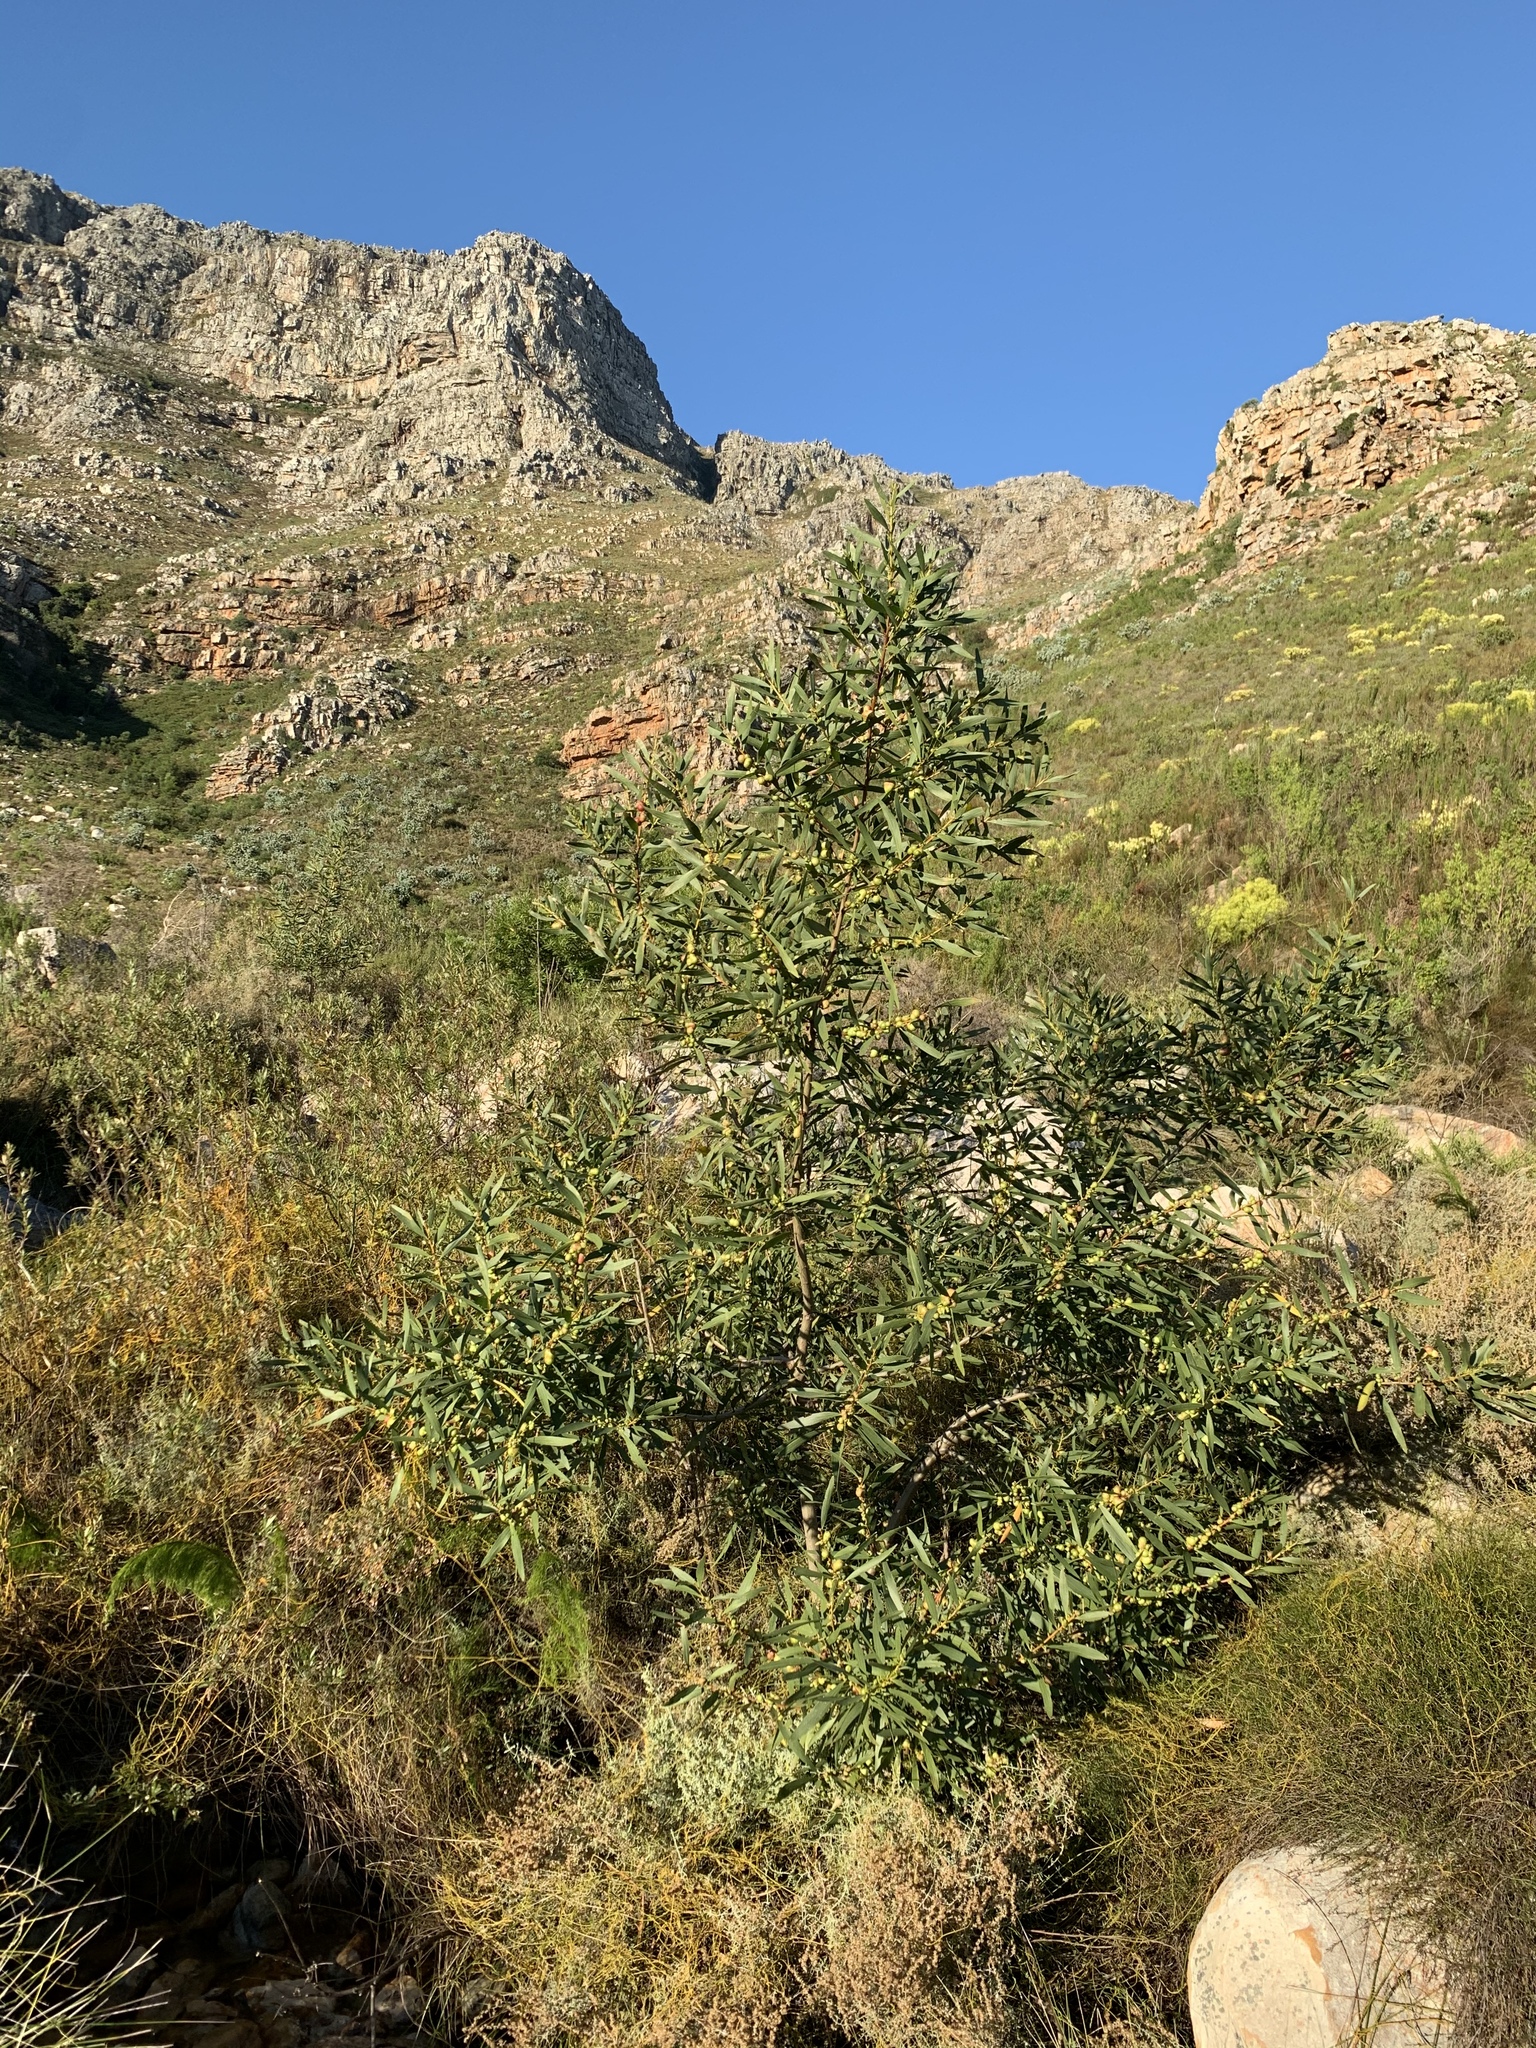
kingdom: Plantae
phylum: Tracheophyta
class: Magnoliopsida
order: Fabales
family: Fabaceae
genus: Acacia
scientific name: Acacia longifolia
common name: Sydney golden wattle
